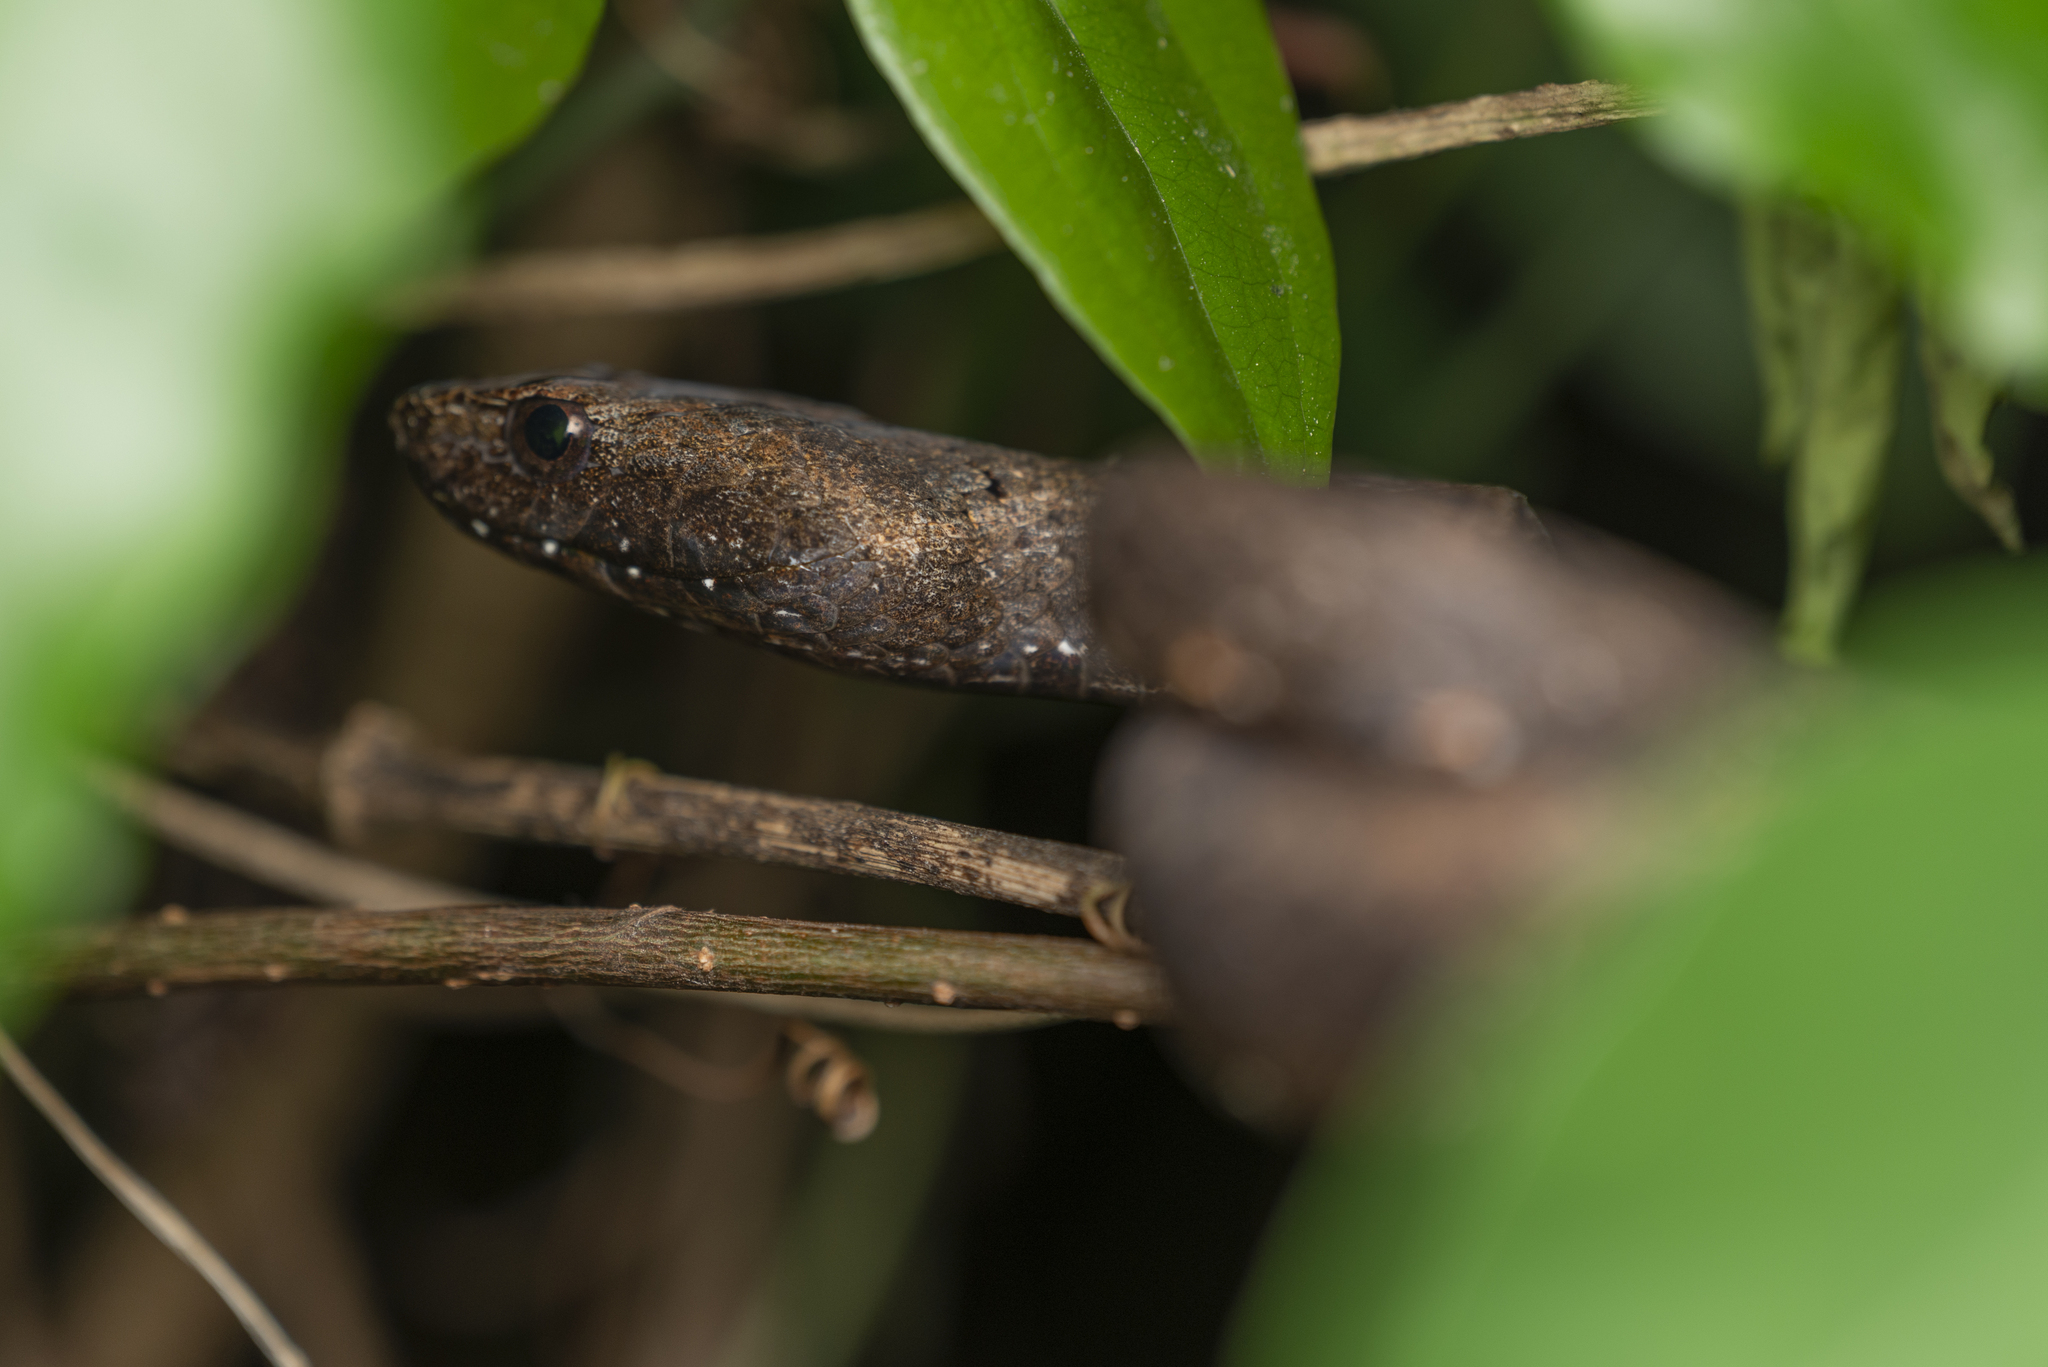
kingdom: Animalia
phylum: Chordata
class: Squamata
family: Pseudaspididae
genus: Psammodynastes
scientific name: Psammodynastes pulverulentus
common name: Common mock viper
